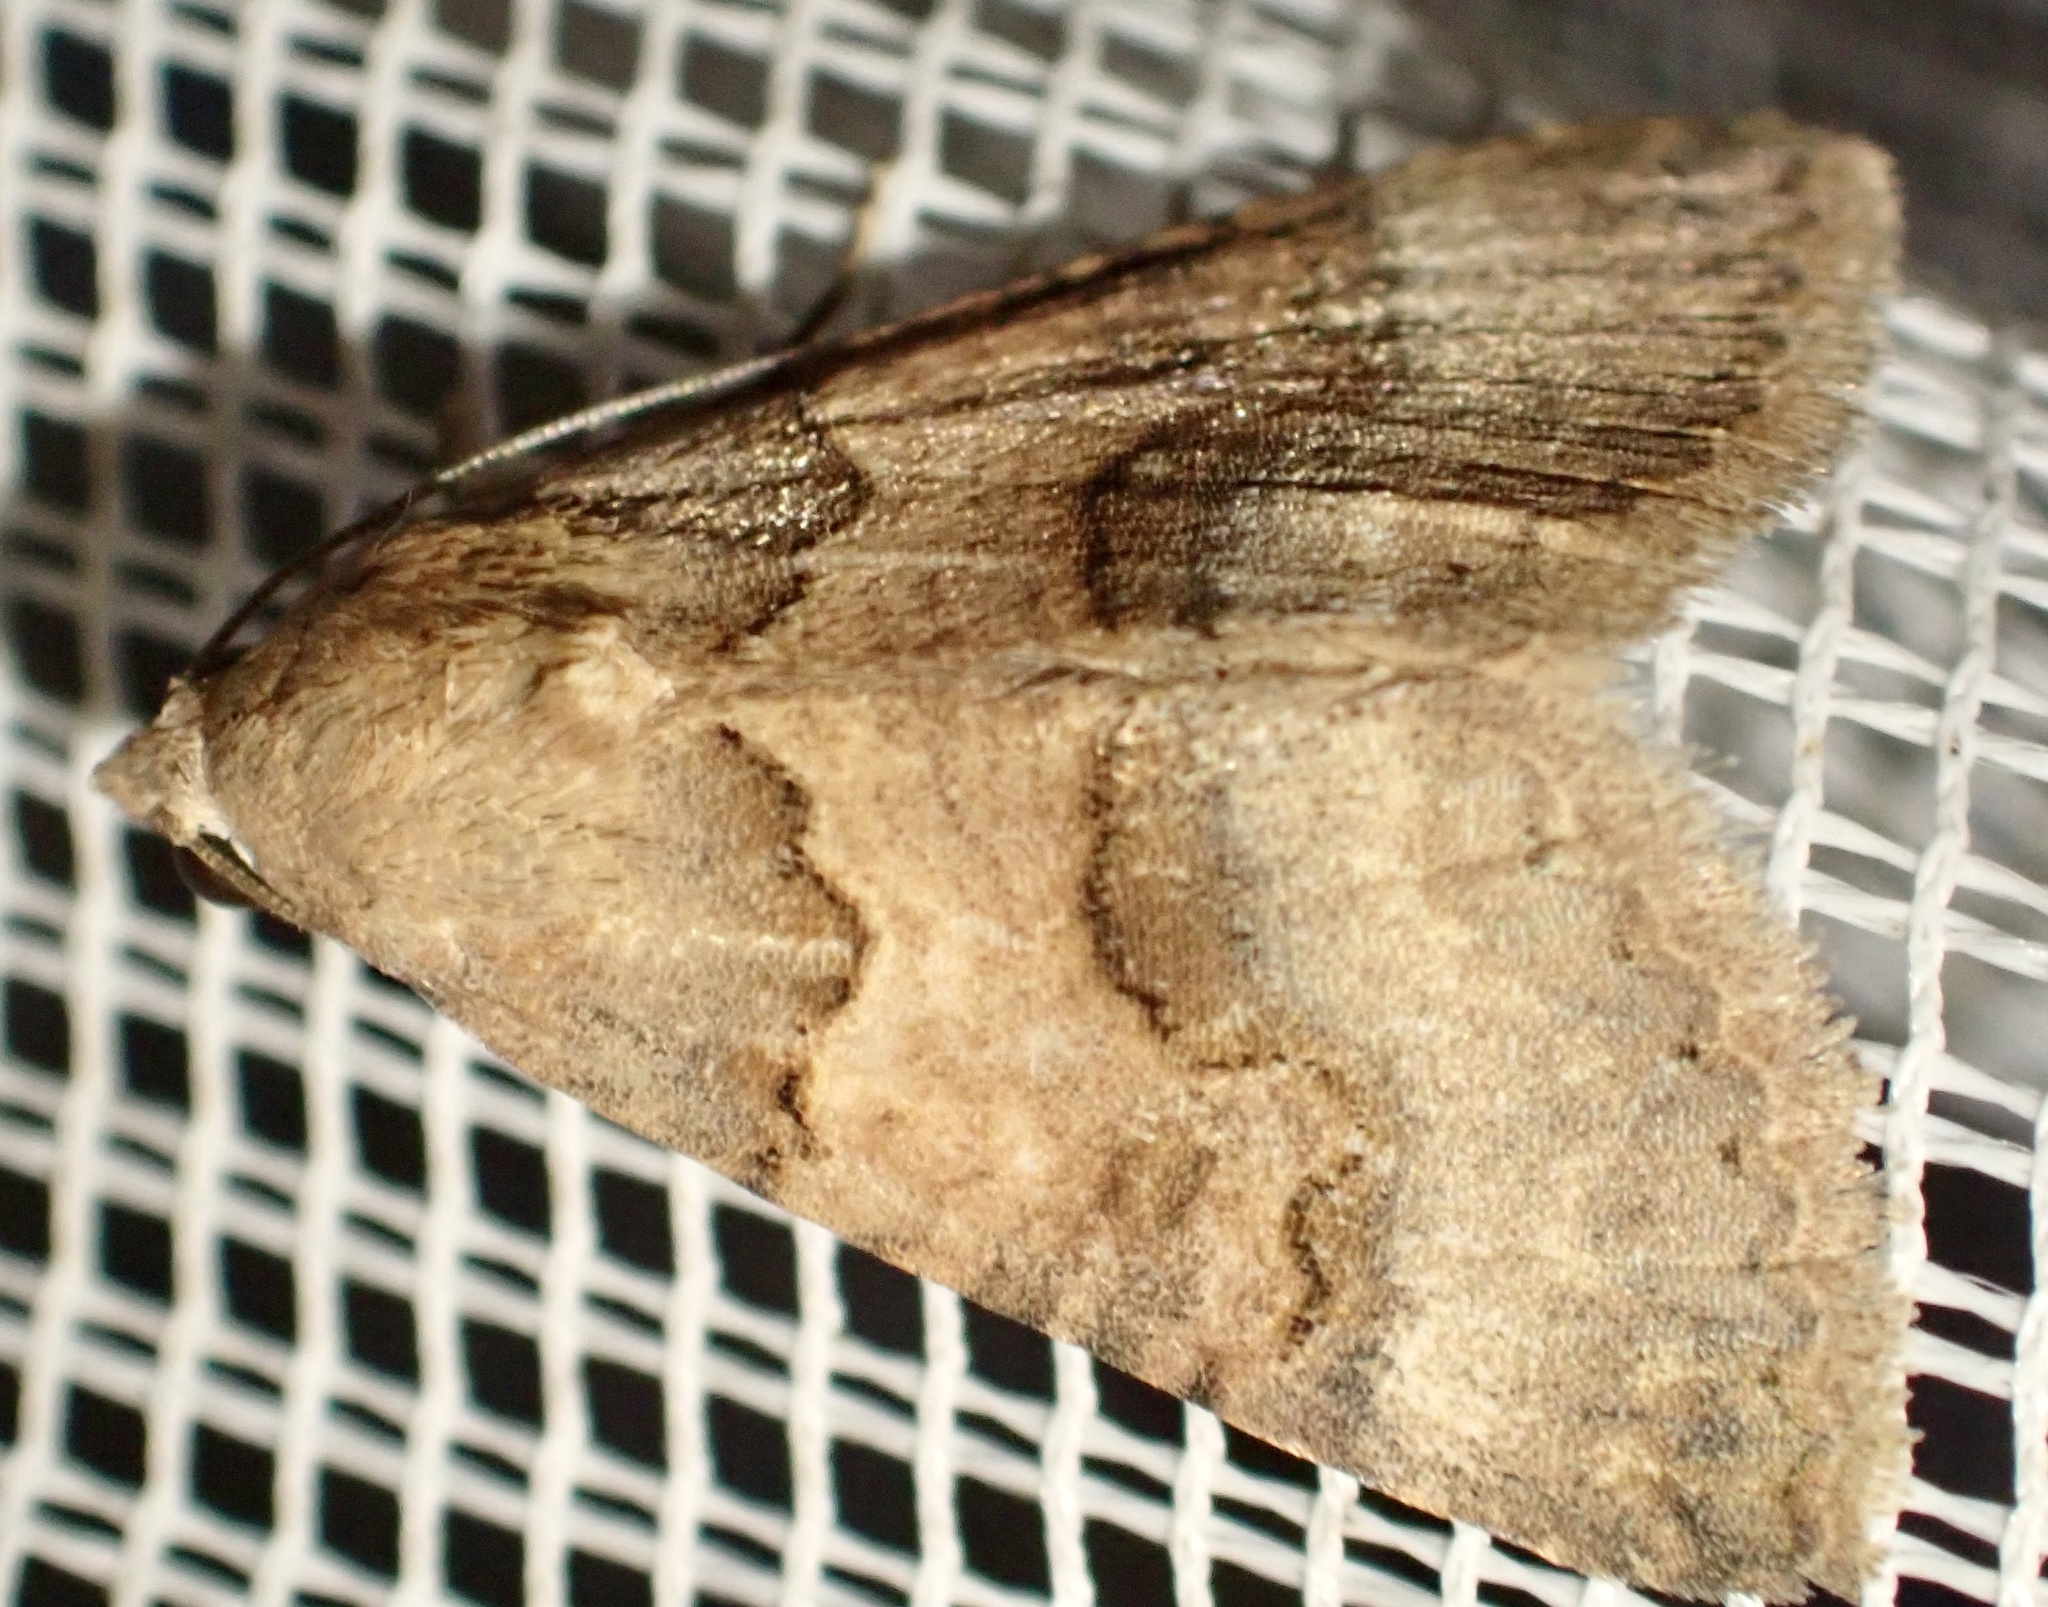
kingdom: Animalia
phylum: Arthropoda
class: Insecta
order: Lepidoptera
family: Erebidae
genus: Tytroca
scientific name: Tytroca dispar
